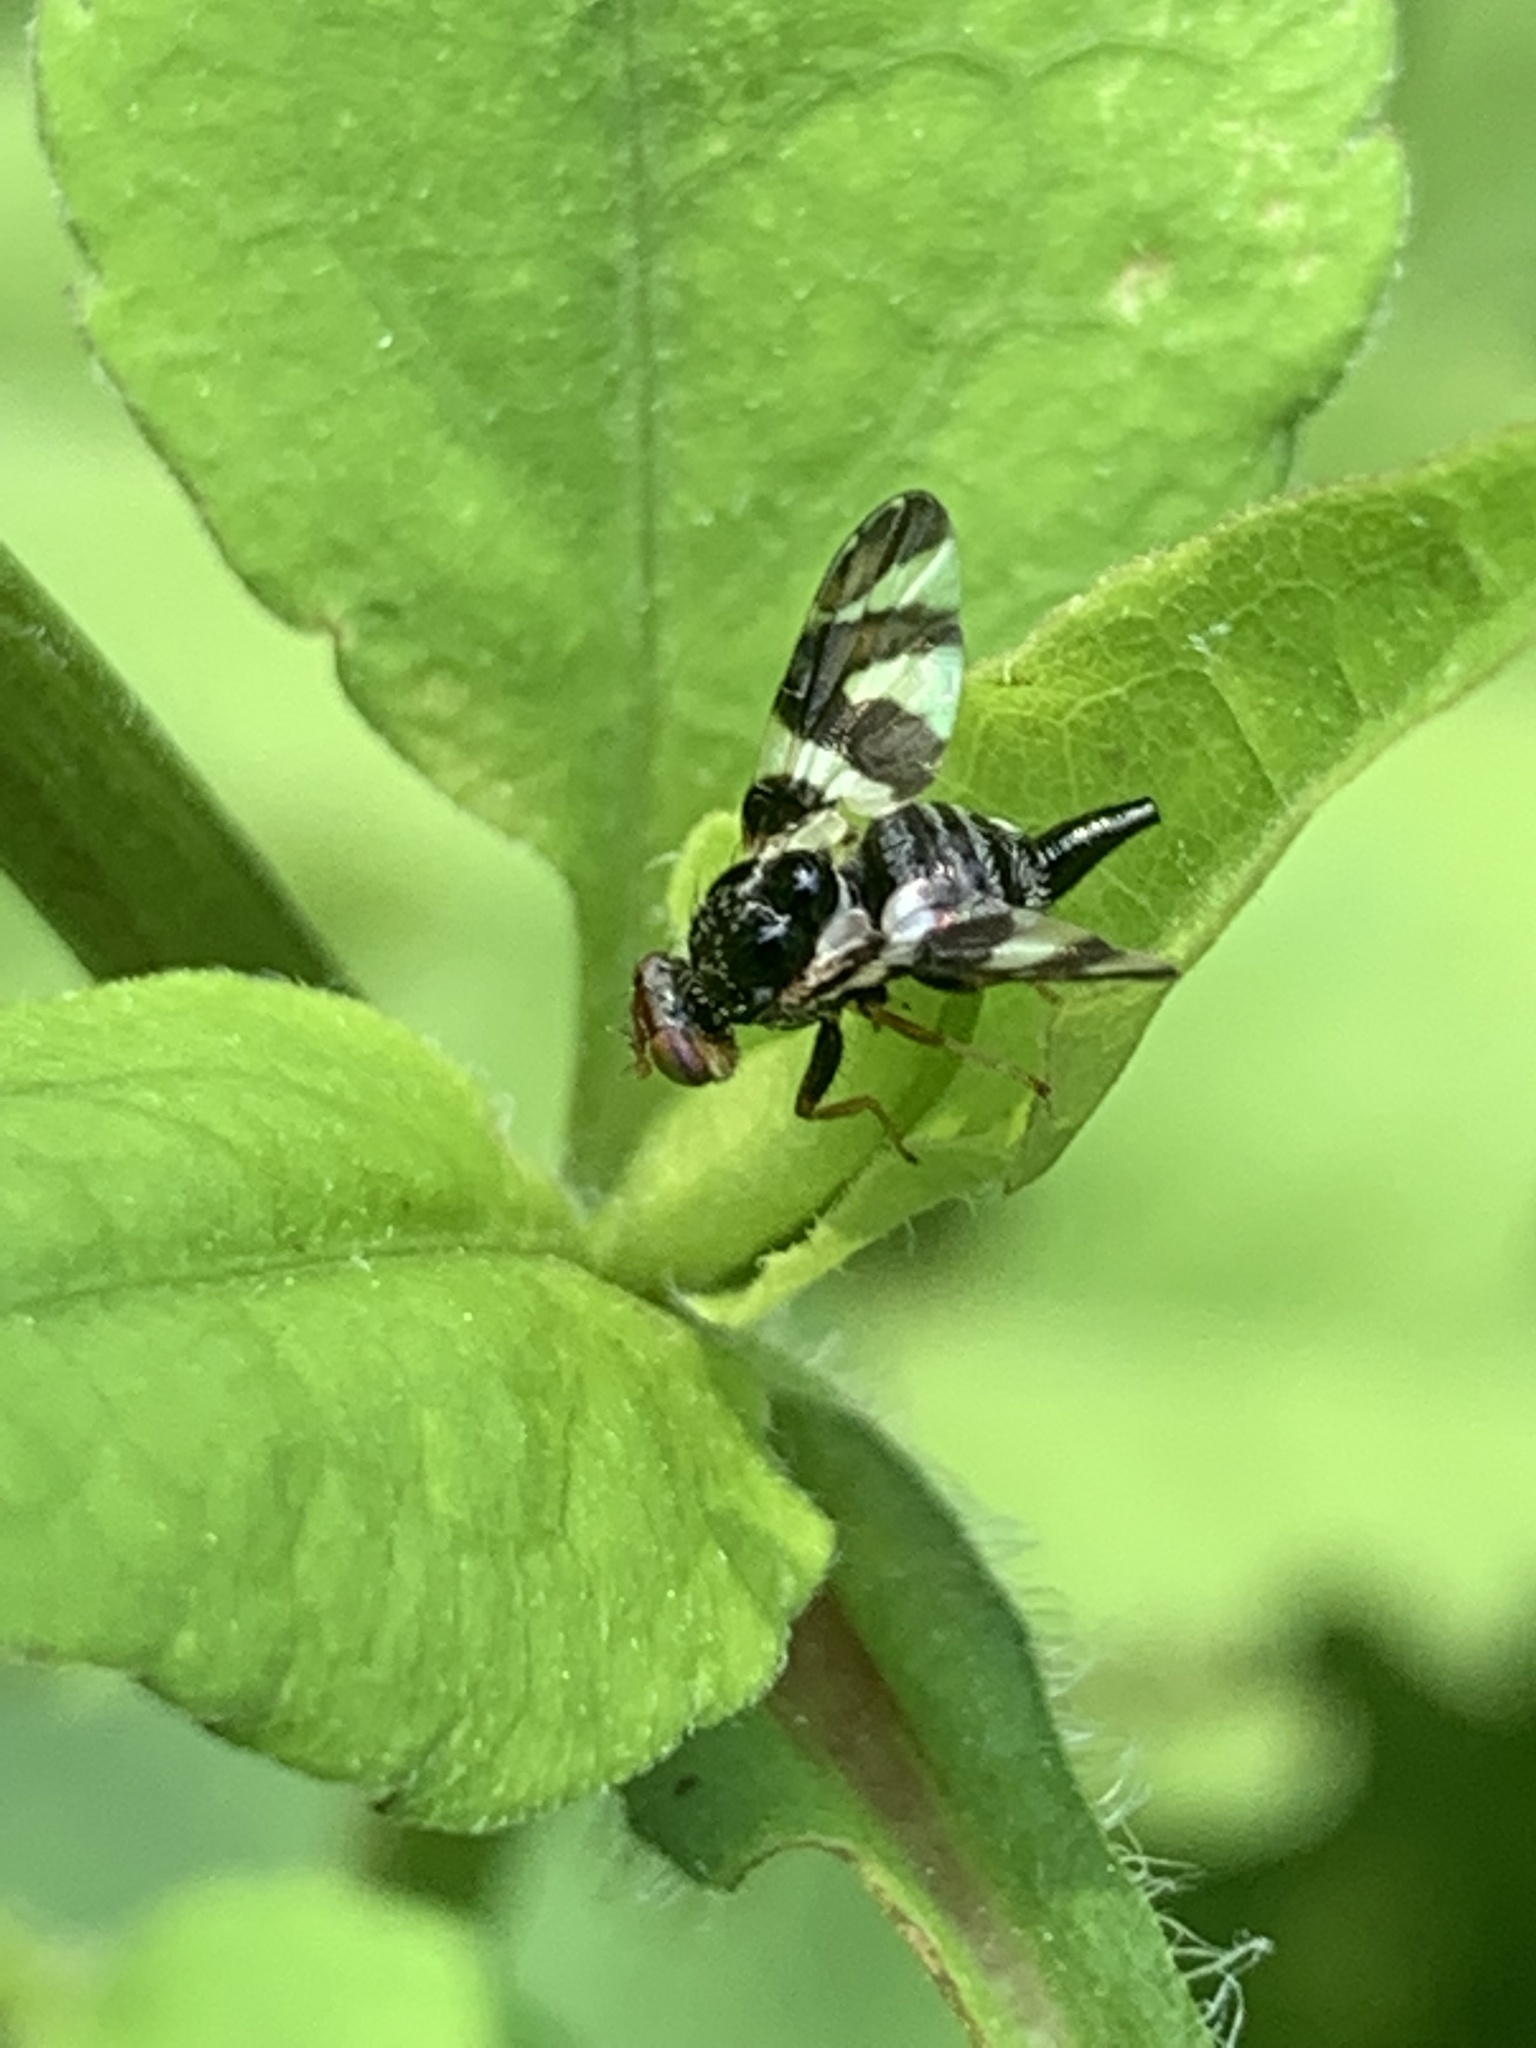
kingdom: Animalia
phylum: Arthropoda
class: Insecta
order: Diptera
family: Tephritidae
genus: Procecidochares
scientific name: Procecidochares atra
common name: Goldenrod brussels sprout gall fly
